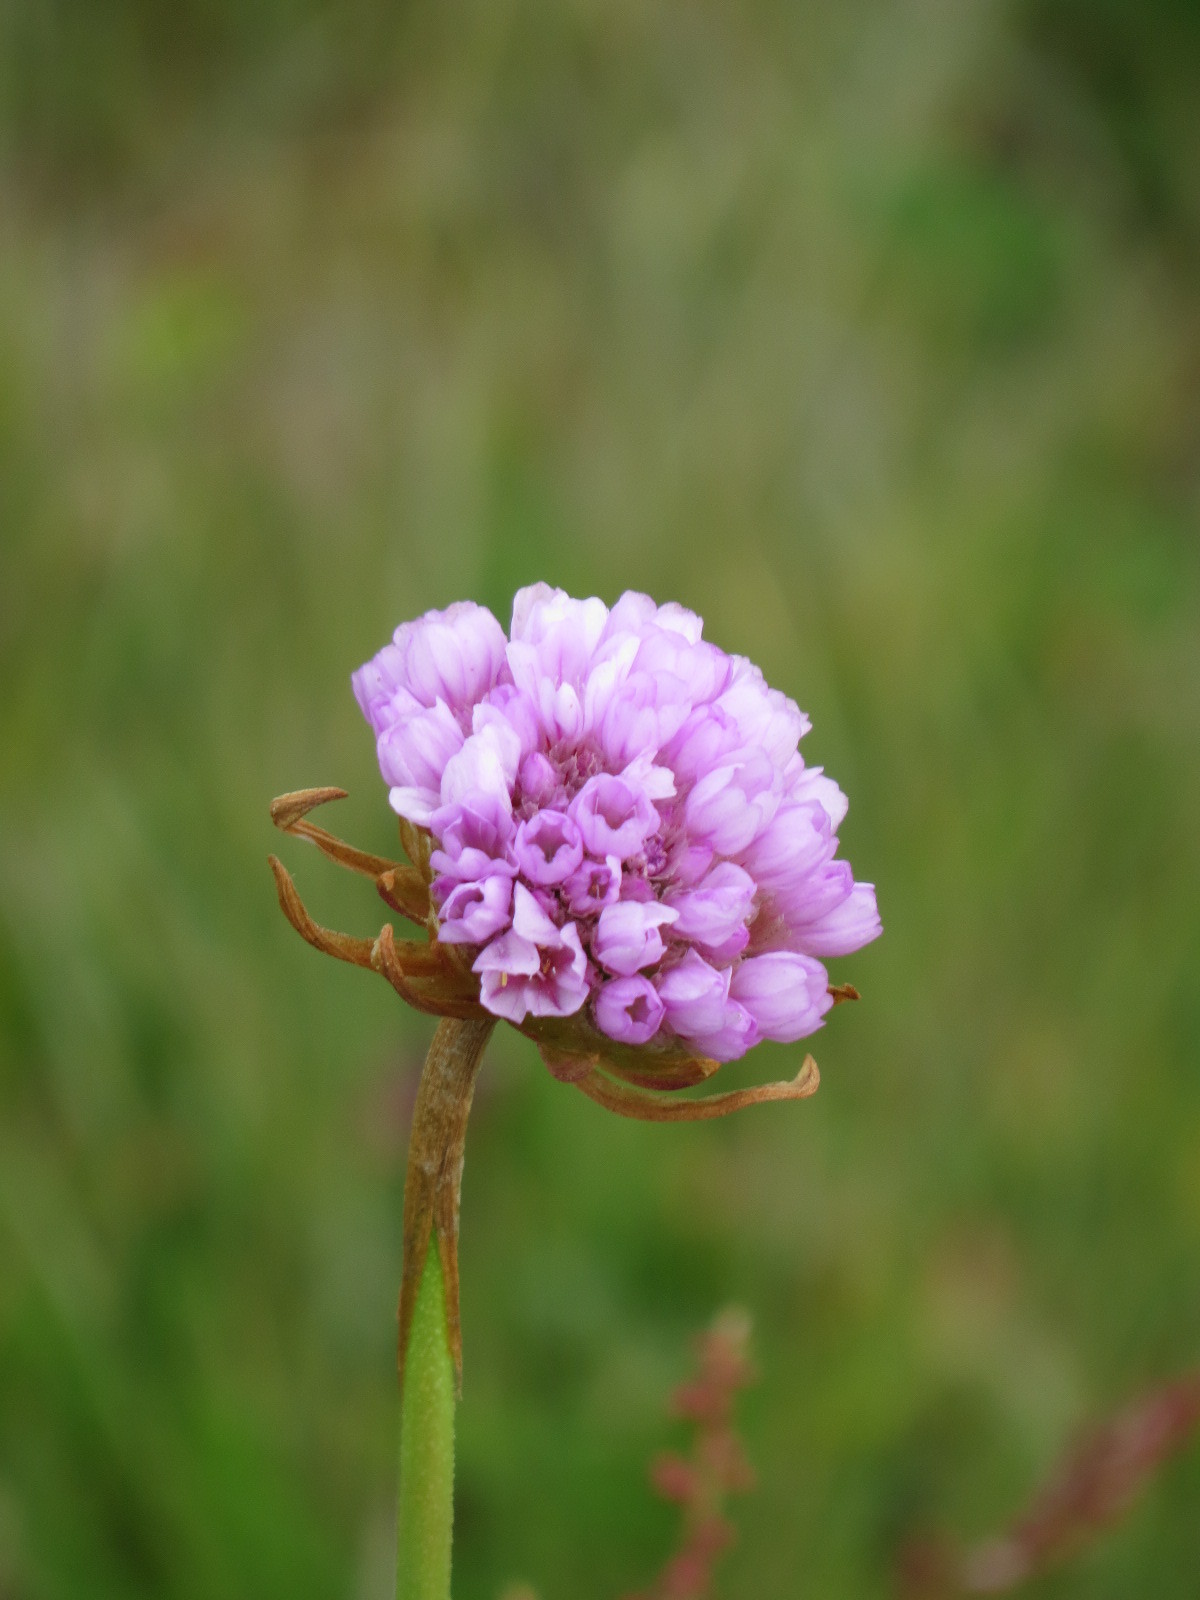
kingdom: Plantae
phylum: Tracheophyta
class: Magnoliopsida
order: Caryophyllales
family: Plumbaginaceae
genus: Armeria
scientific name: Armeria maritima
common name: Thrift
